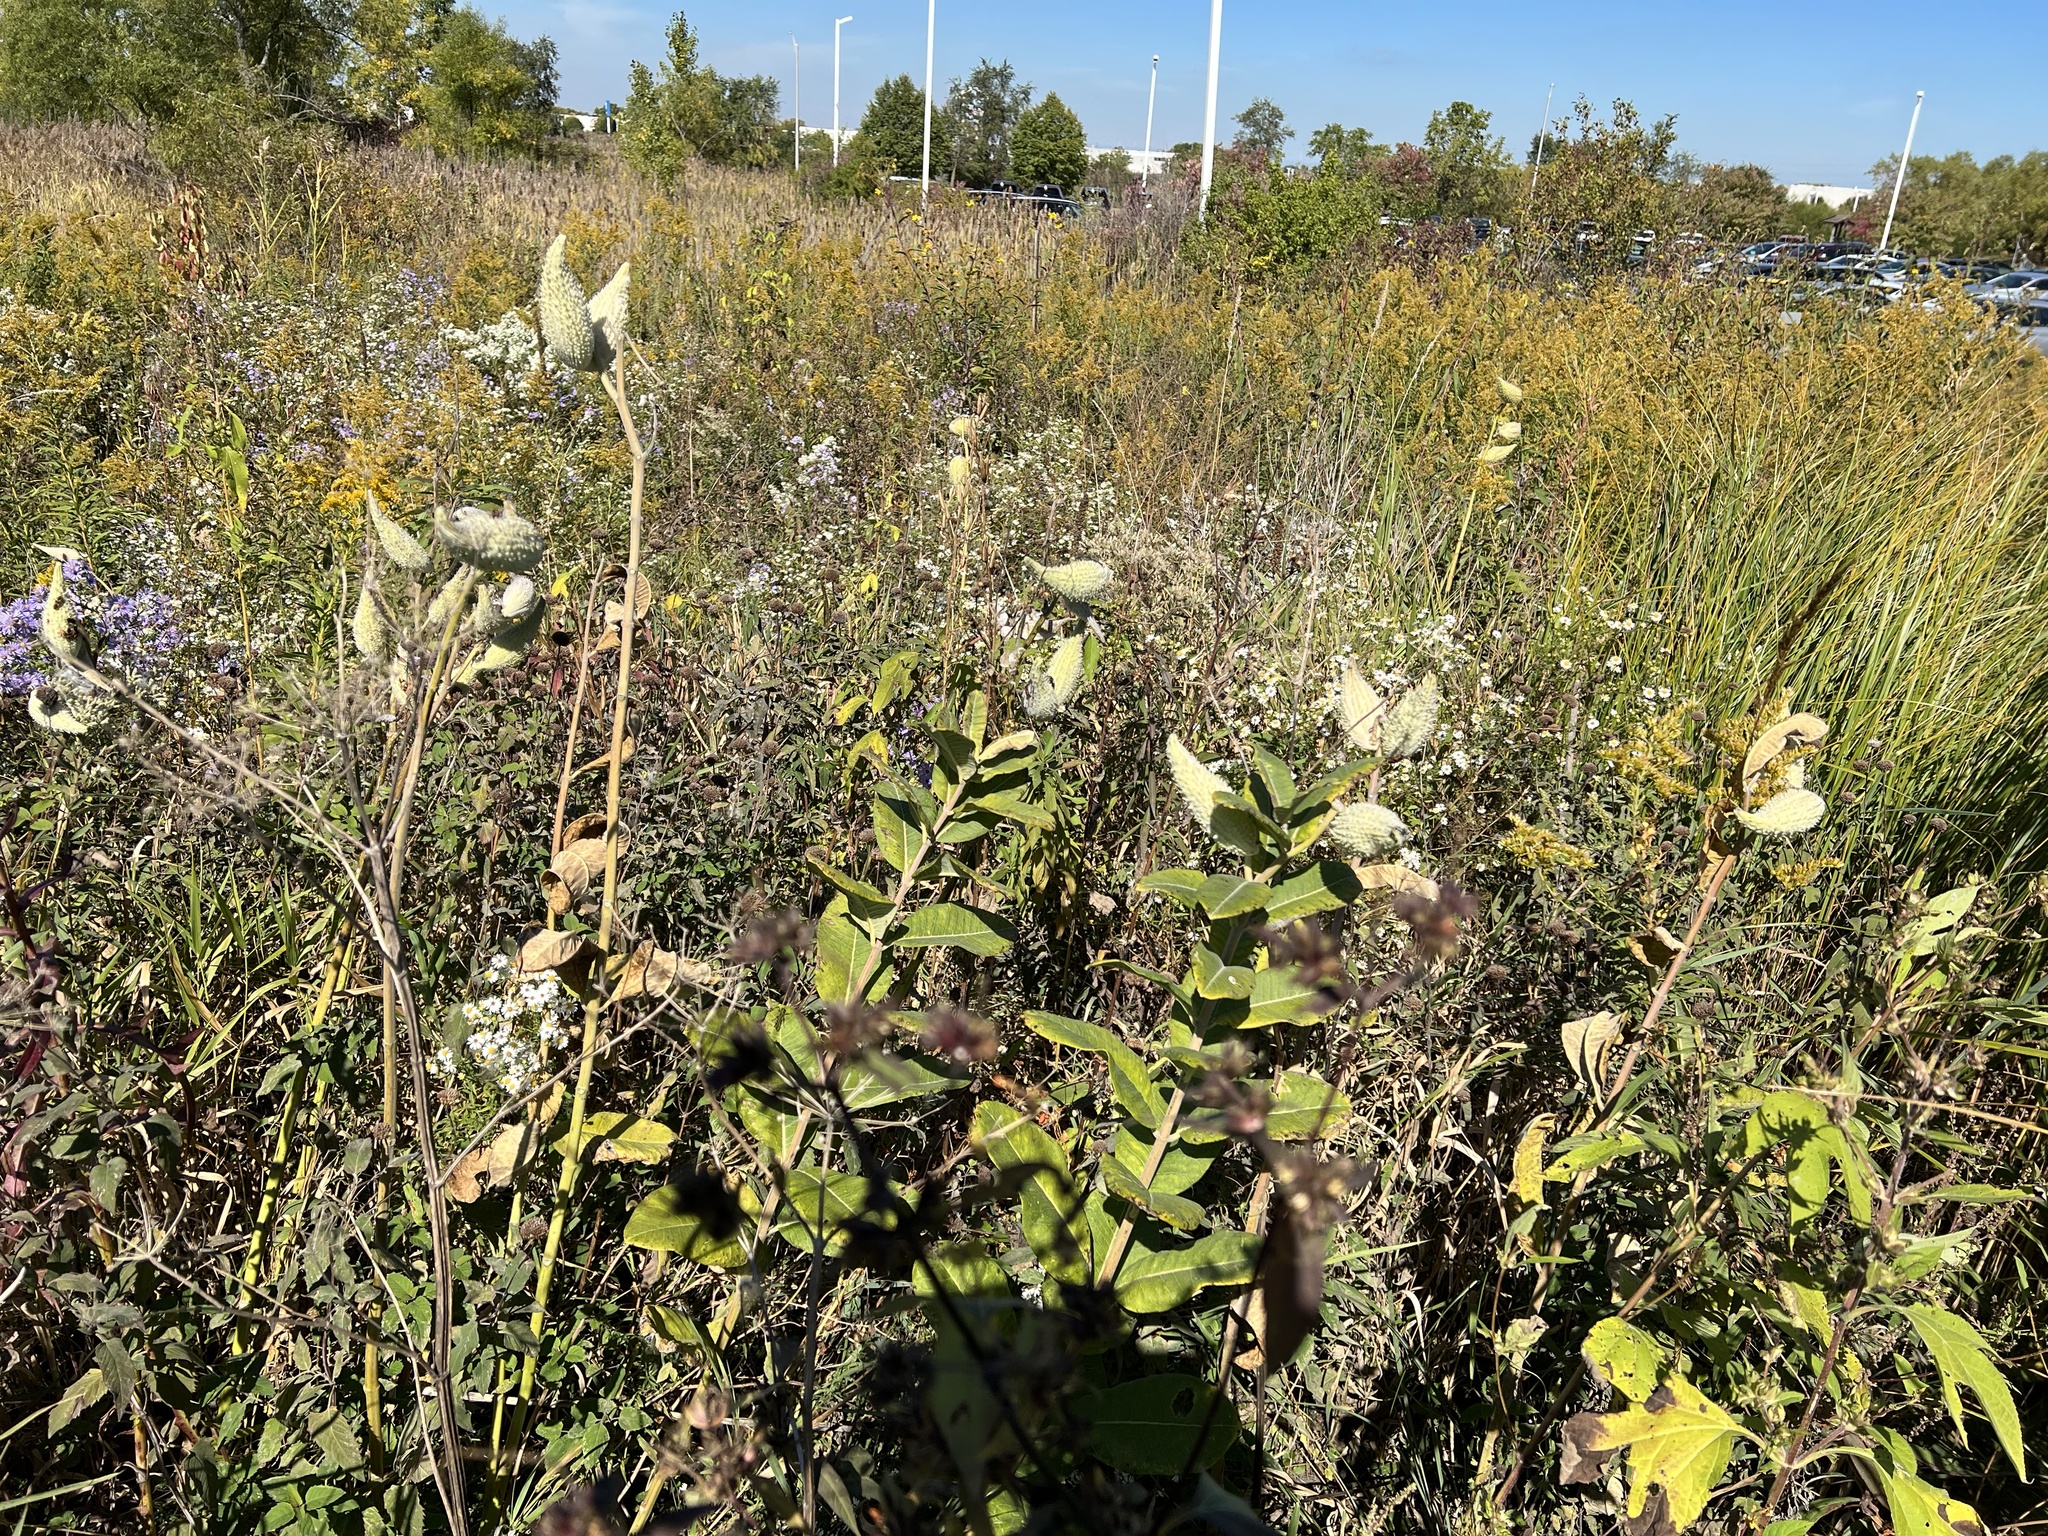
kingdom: Plantae
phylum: Tracheophyta
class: Magnoliopsida
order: Gentianales
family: Apocynaceae
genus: Asclepias
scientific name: Asclepias syriaca
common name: Common milkweed
